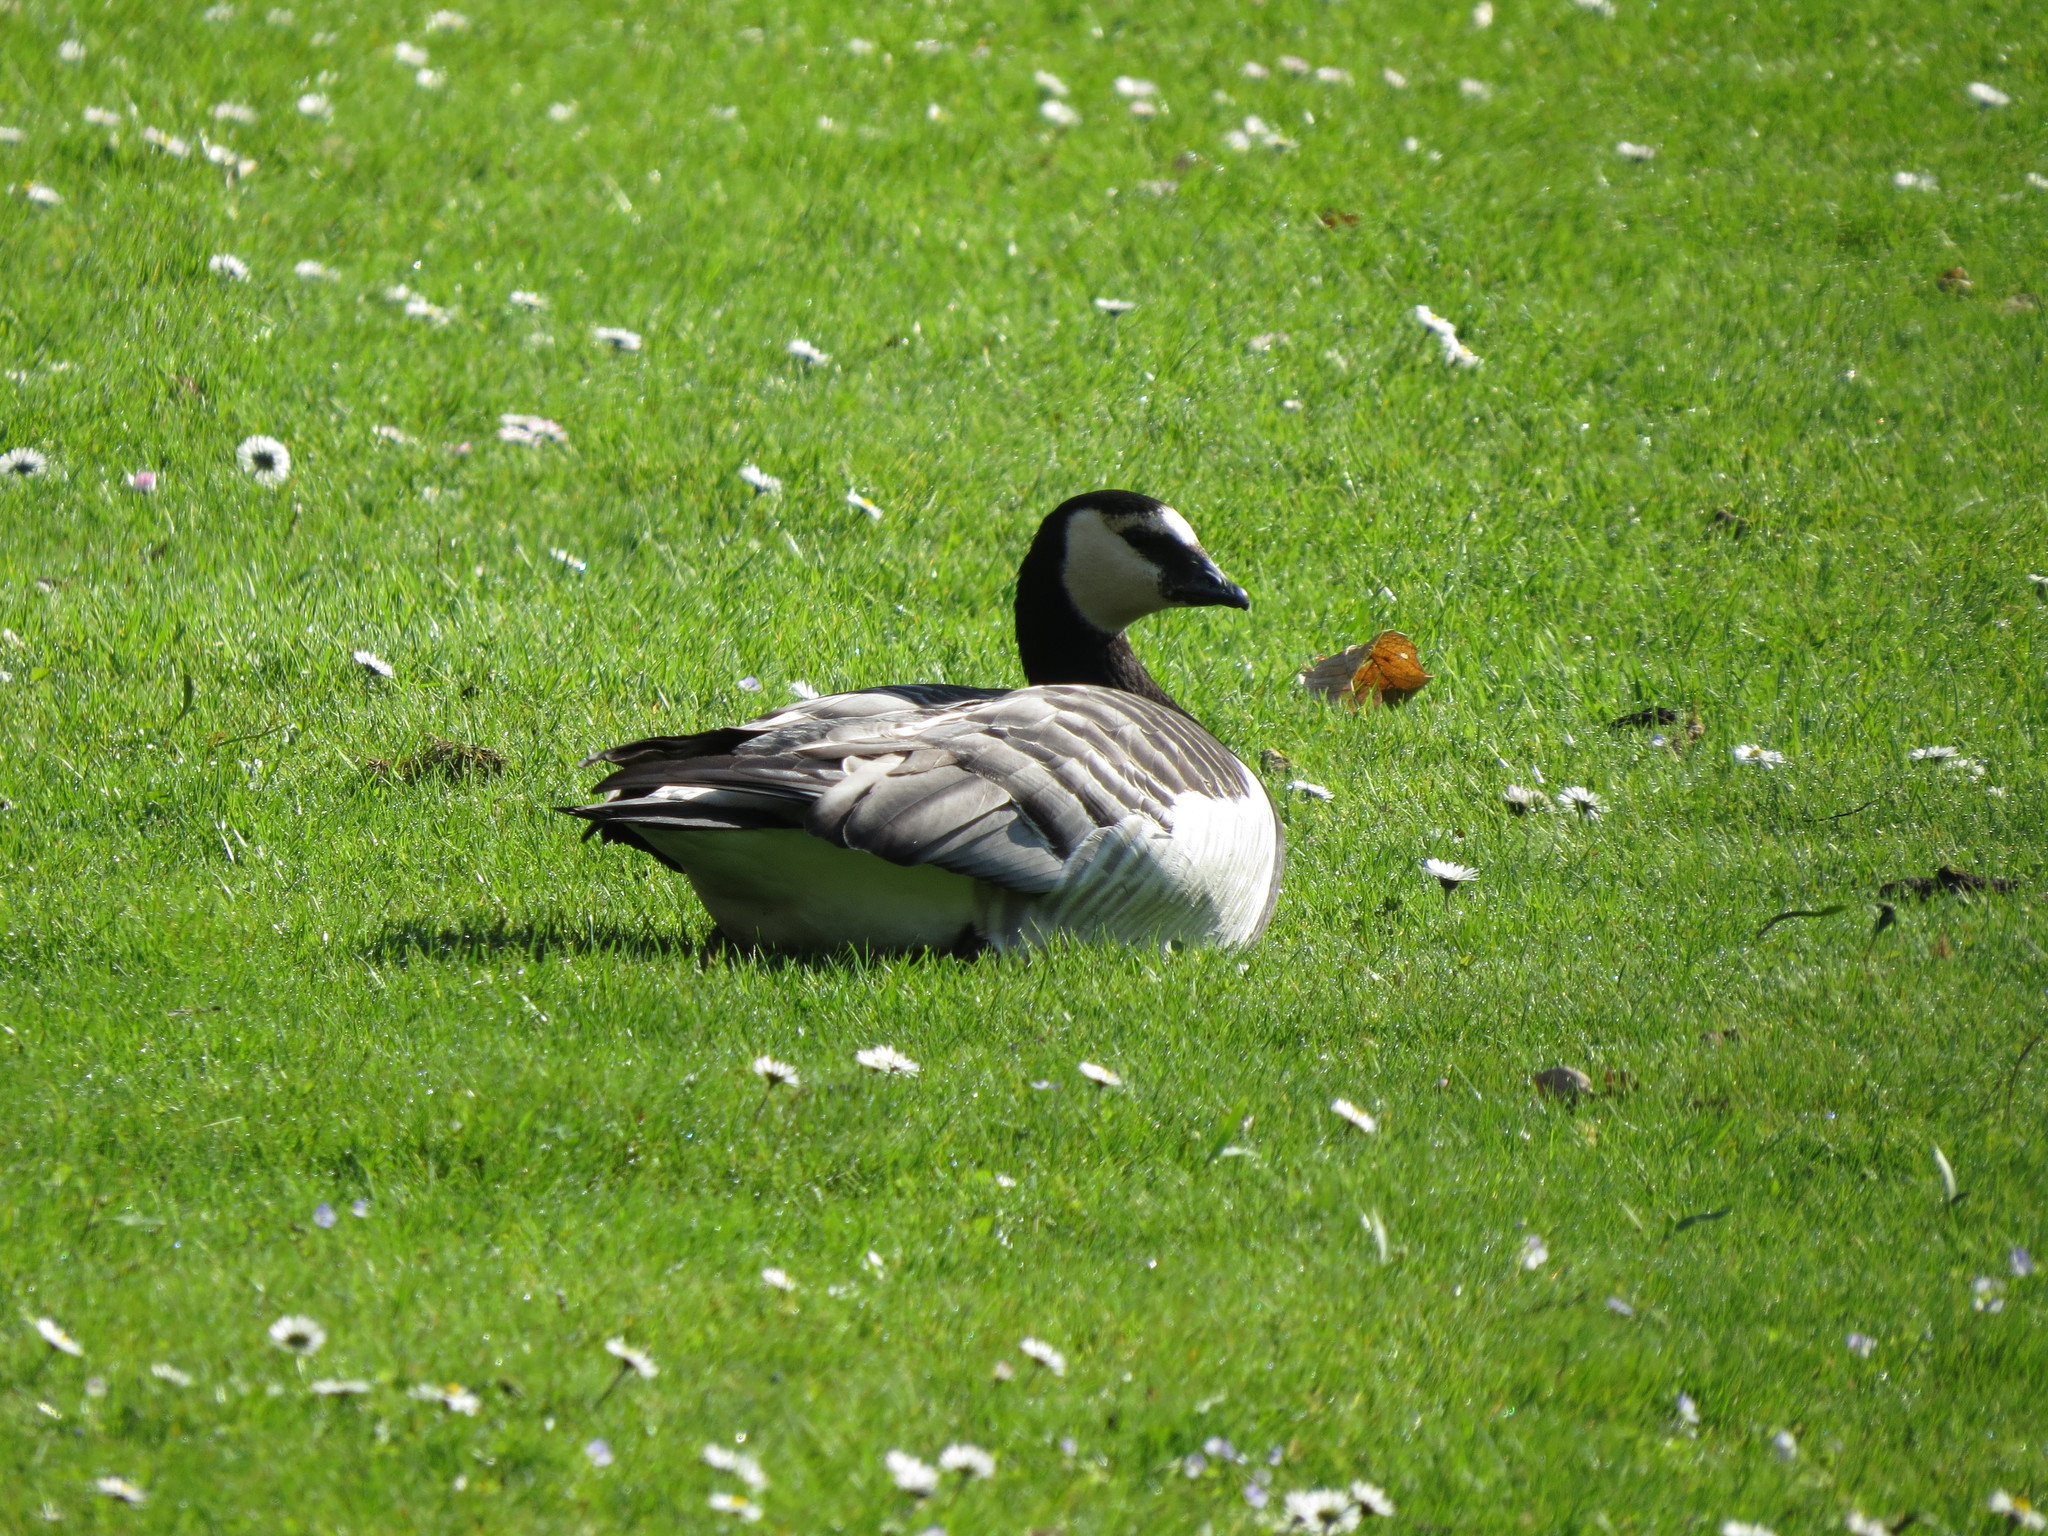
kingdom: Animalia
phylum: Chordata
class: Aves
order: Anseriformes
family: Anatidae
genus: Branta
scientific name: Branta leucopsis
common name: Barnacle goose
